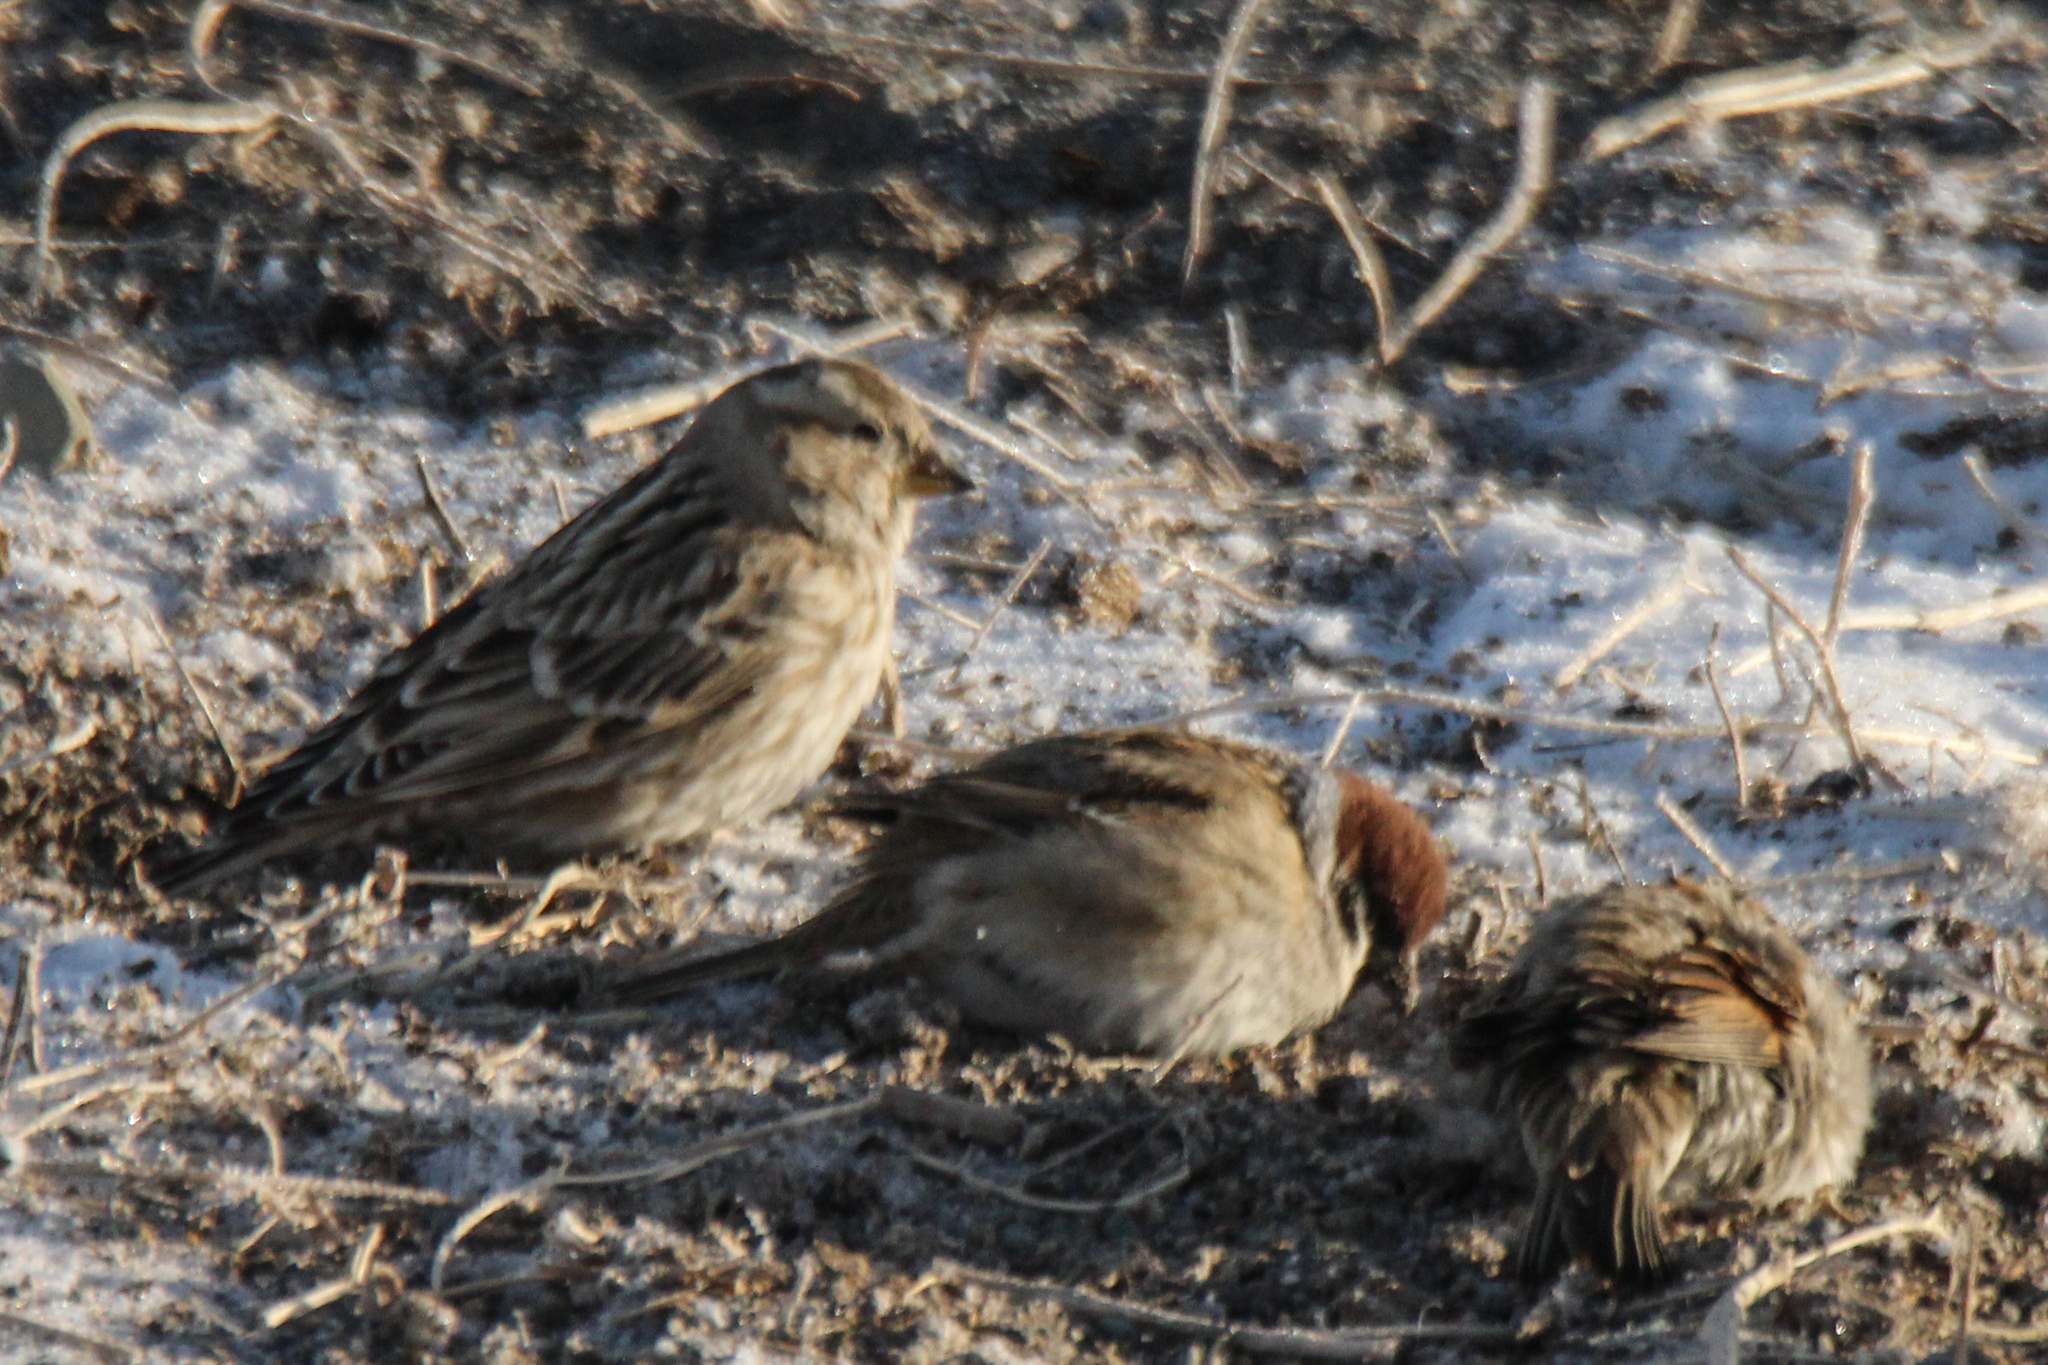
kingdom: Animalia
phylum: Chordata
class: Aves
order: Passeriformes
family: Passeridae
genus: Petronia
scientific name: Petronia petronia
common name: Rock sparrow
